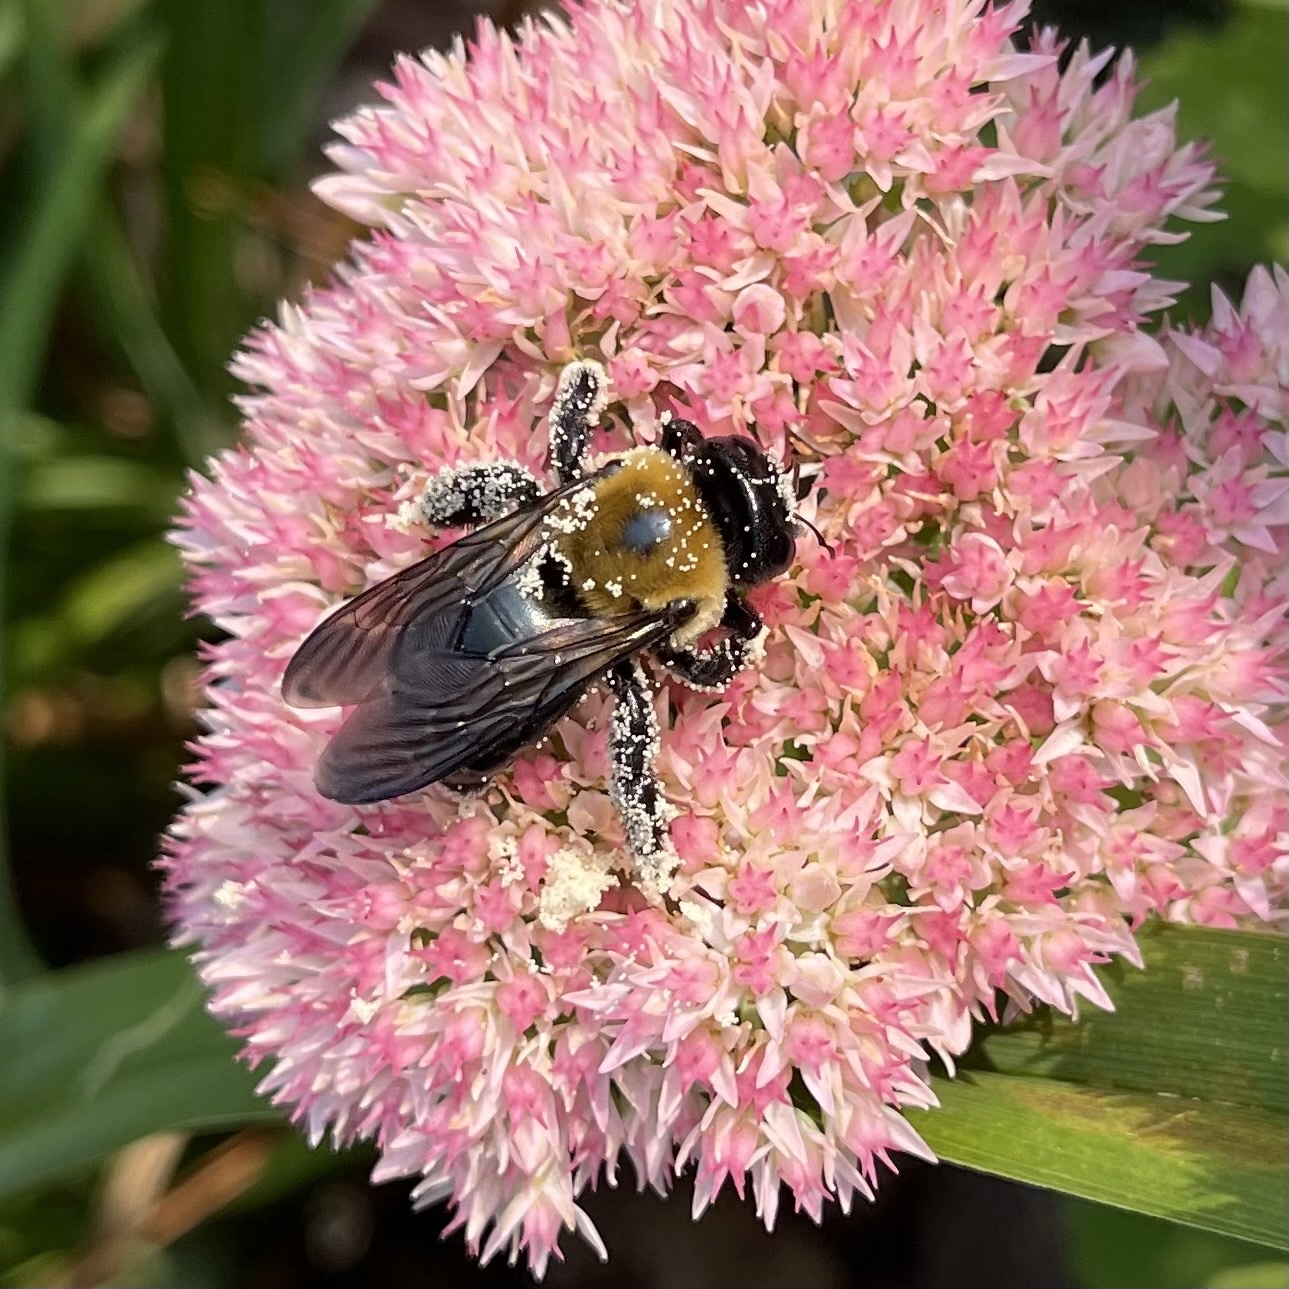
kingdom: Animalia
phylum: Arthropoda
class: Insecta
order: Hymenoptera
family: Apidae
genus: Xylocopa
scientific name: Xylocopa virginica
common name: Carpenter bee
